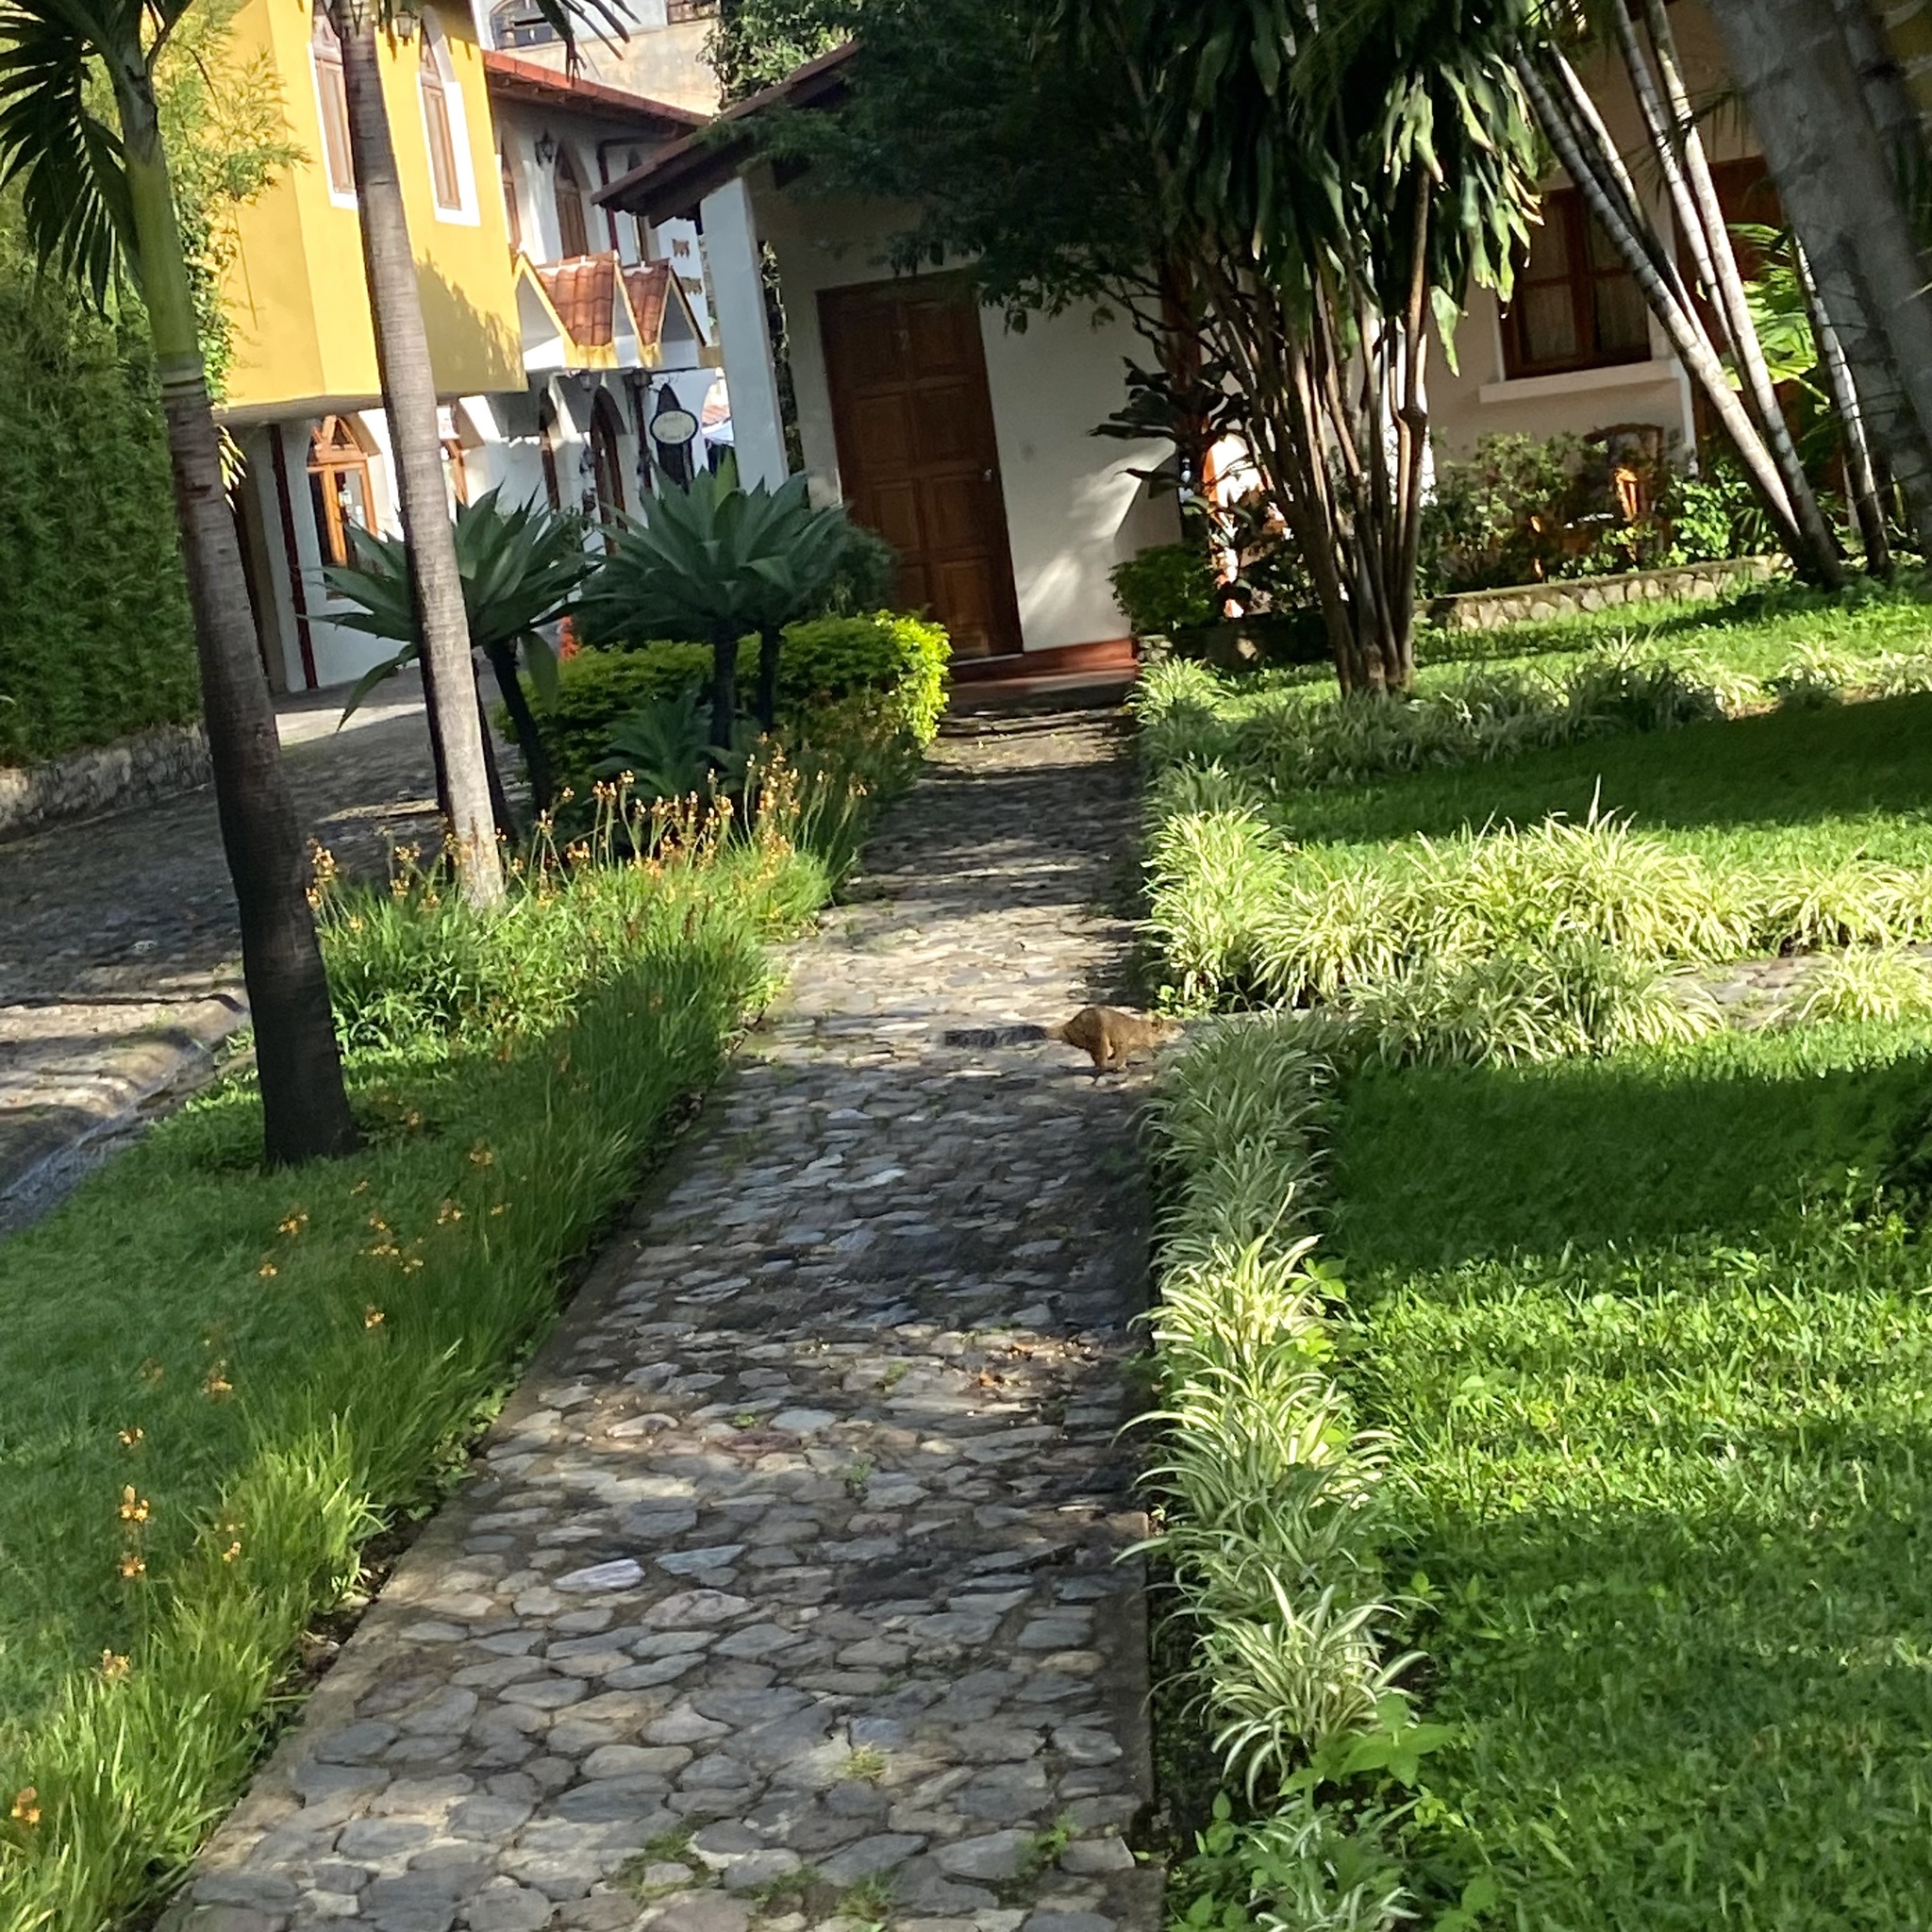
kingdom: Animalia
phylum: Chordata
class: Mammalia
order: Rodentia
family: Sciuridae
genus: Sciurus
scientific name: Sciurus variegatoides
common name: Variegated squirrel
